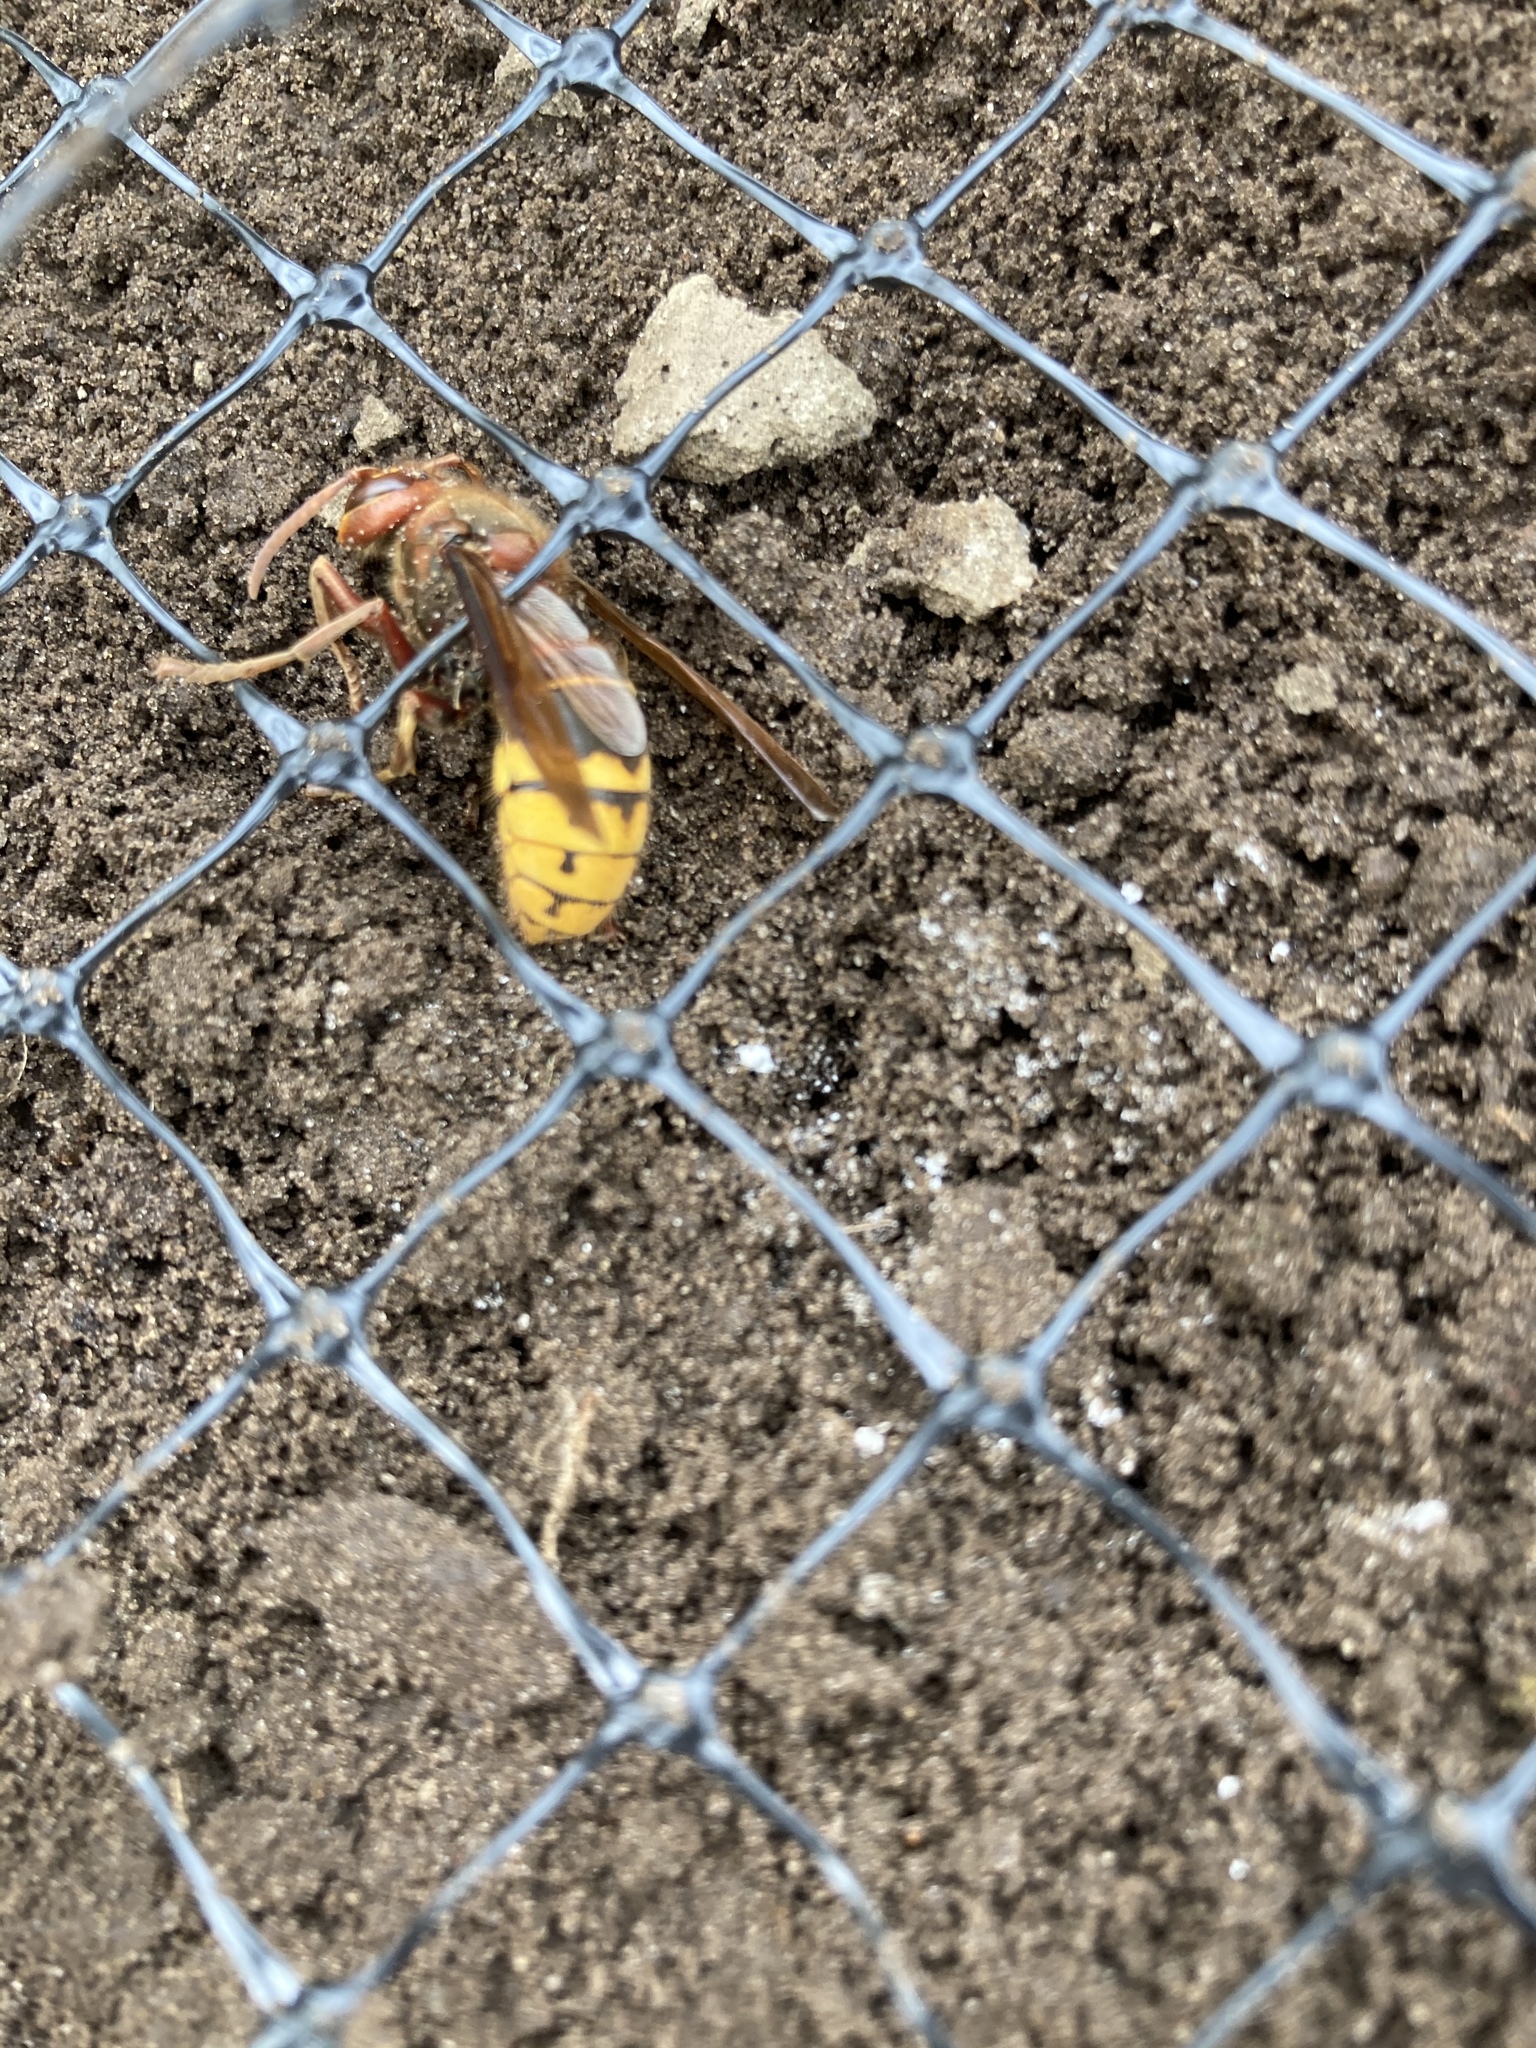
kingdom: Animalia
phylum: Arthropoda
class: Insecta
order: Hymenoptera
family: Vespidae
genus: Vespa
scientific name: Vespa crabro
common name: Hornet
